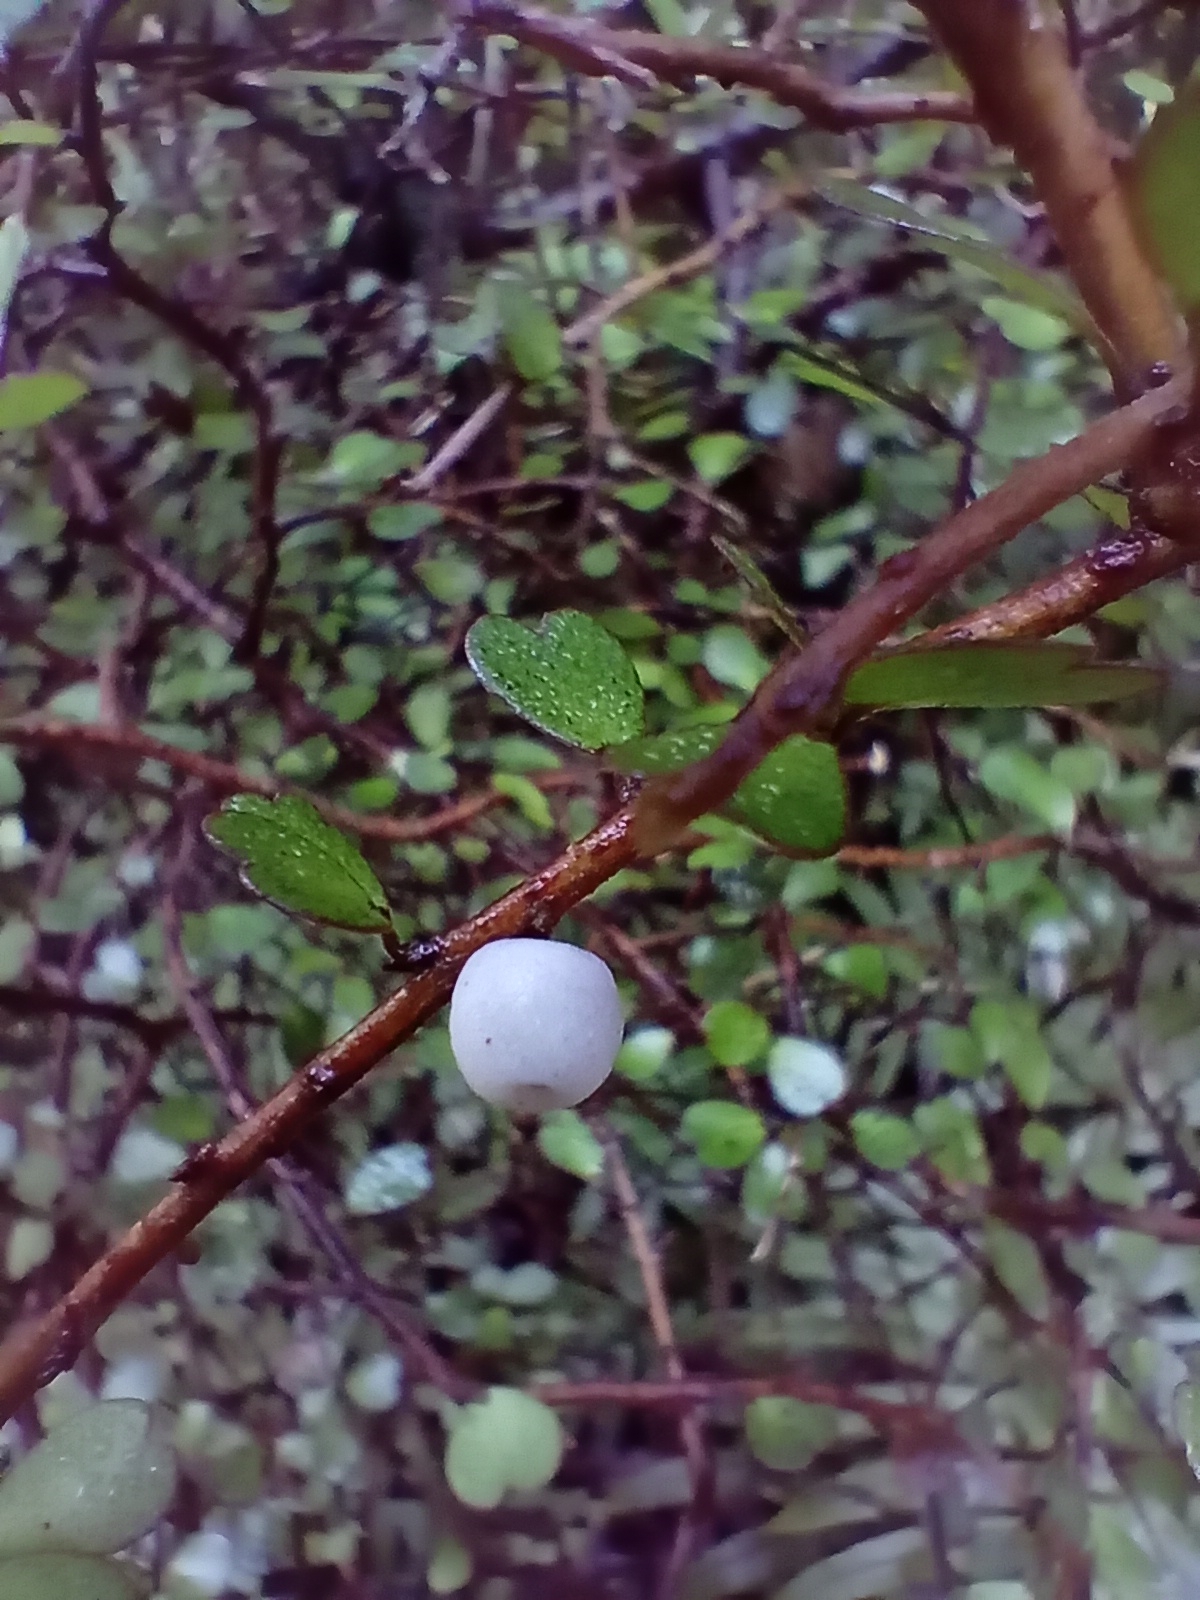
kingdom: Plantae
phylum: Tracheophyta
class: Magnoliopsida
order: Ericales
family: Primulaceae
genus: Myrsine
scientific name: Myrsine divaricata
